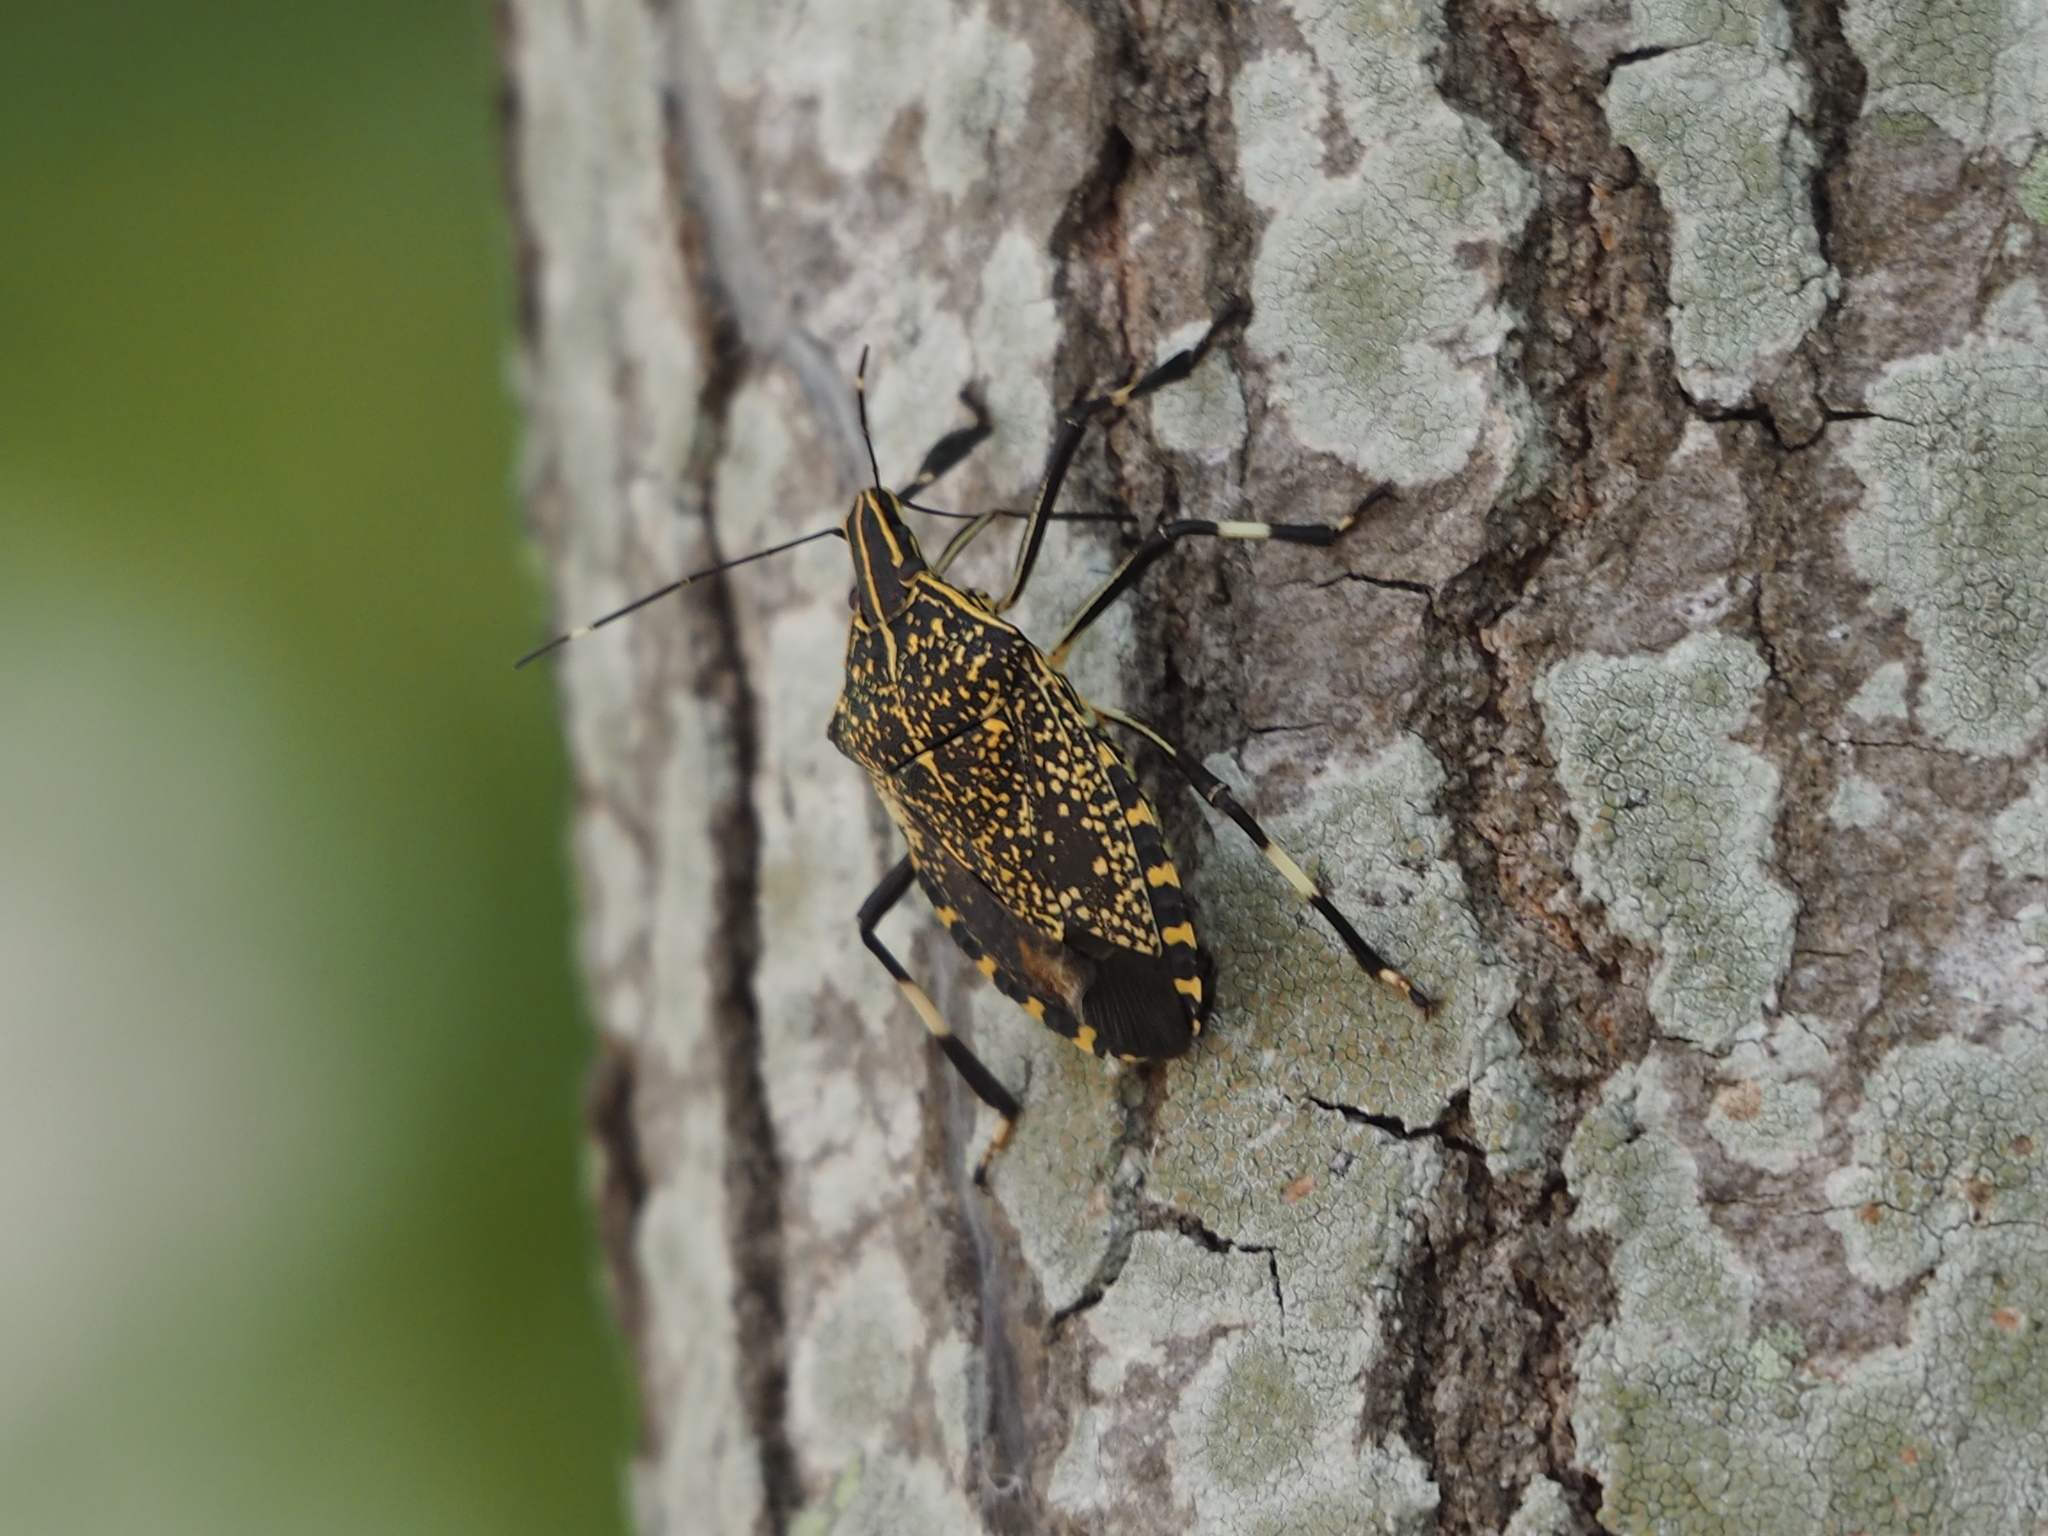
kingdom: Animalia
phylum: Arthropoda
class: Insecta
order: Hemiptera
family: Pentatomidae
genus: Erthesina
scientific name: Erthesina fullo
